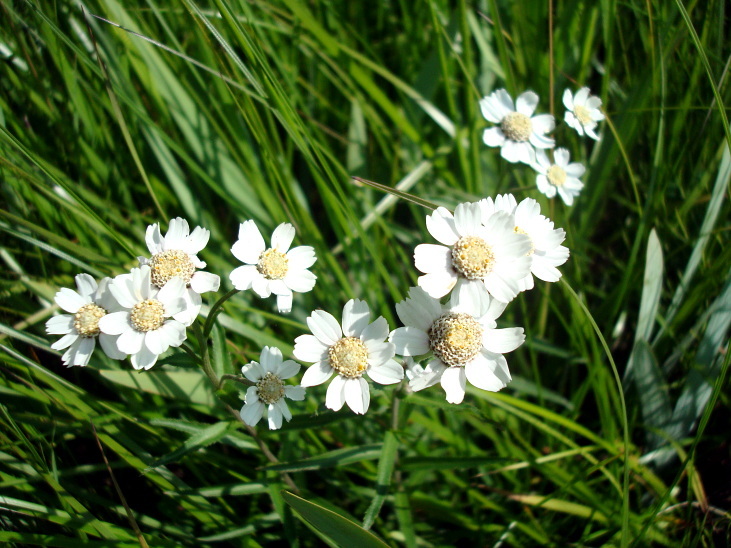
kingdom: Plantae
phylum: Tracheophyta
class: Magnoliopsida
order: Asterales
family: Asteraceae
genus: Achillea
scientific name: Achillea ptarmica
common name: Sneezeweed
